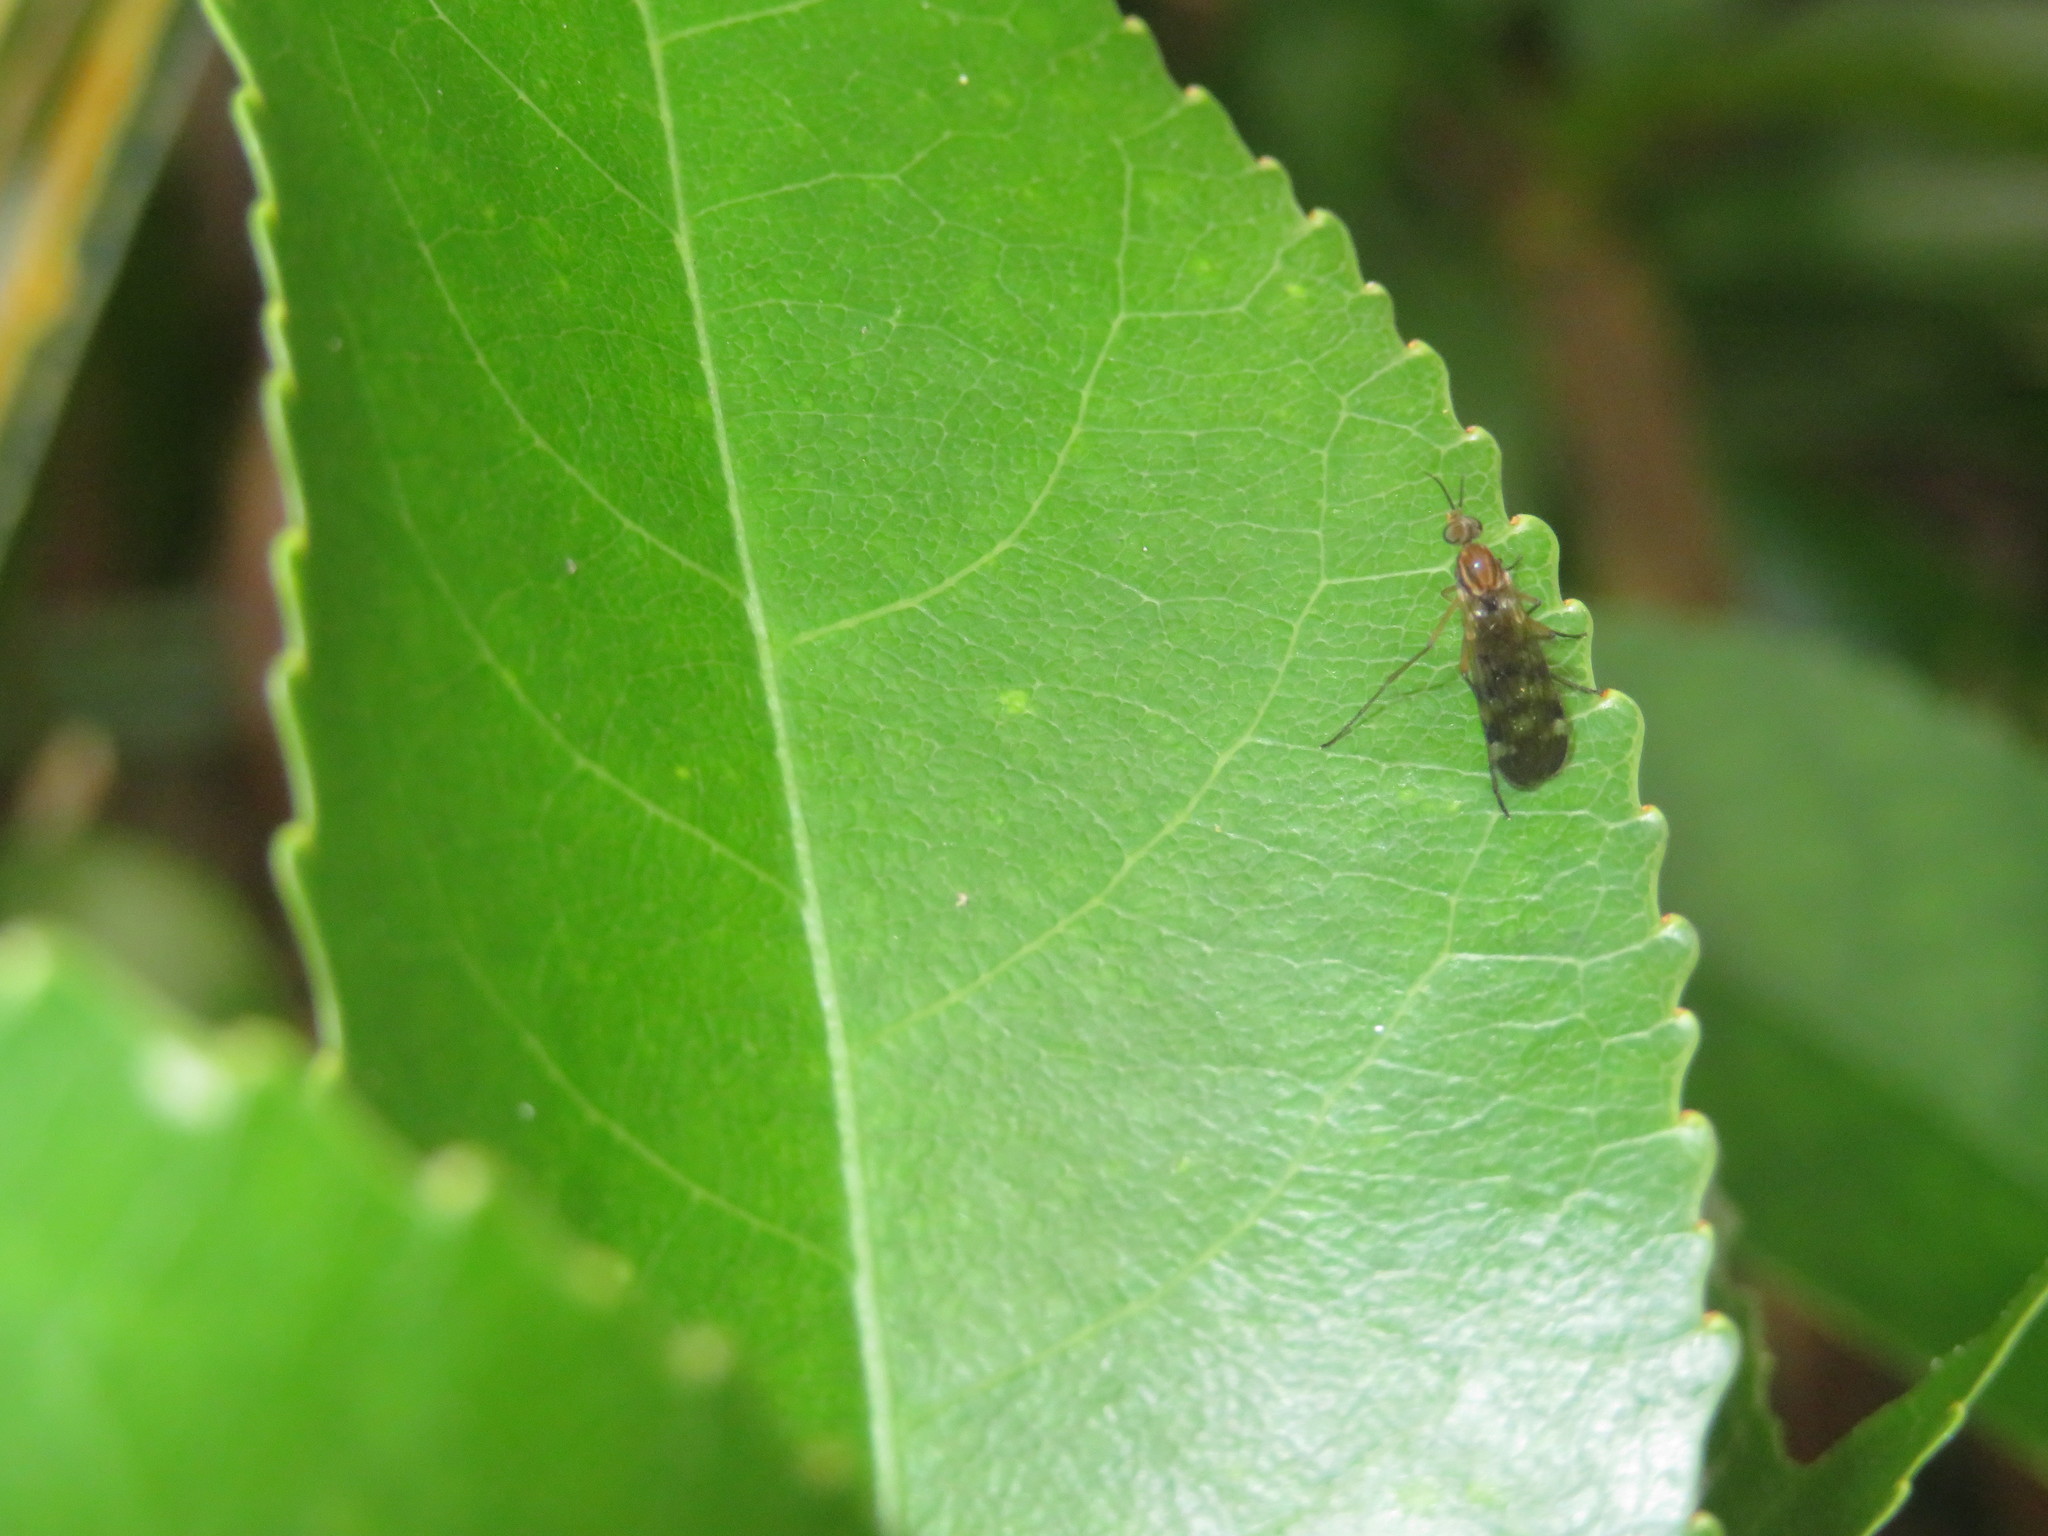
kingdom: Animalia
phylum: Arthropoda
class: Insecta
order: Diptera
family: Anisopodidae
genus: Sylvicola
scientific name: Sylvicola notatus
